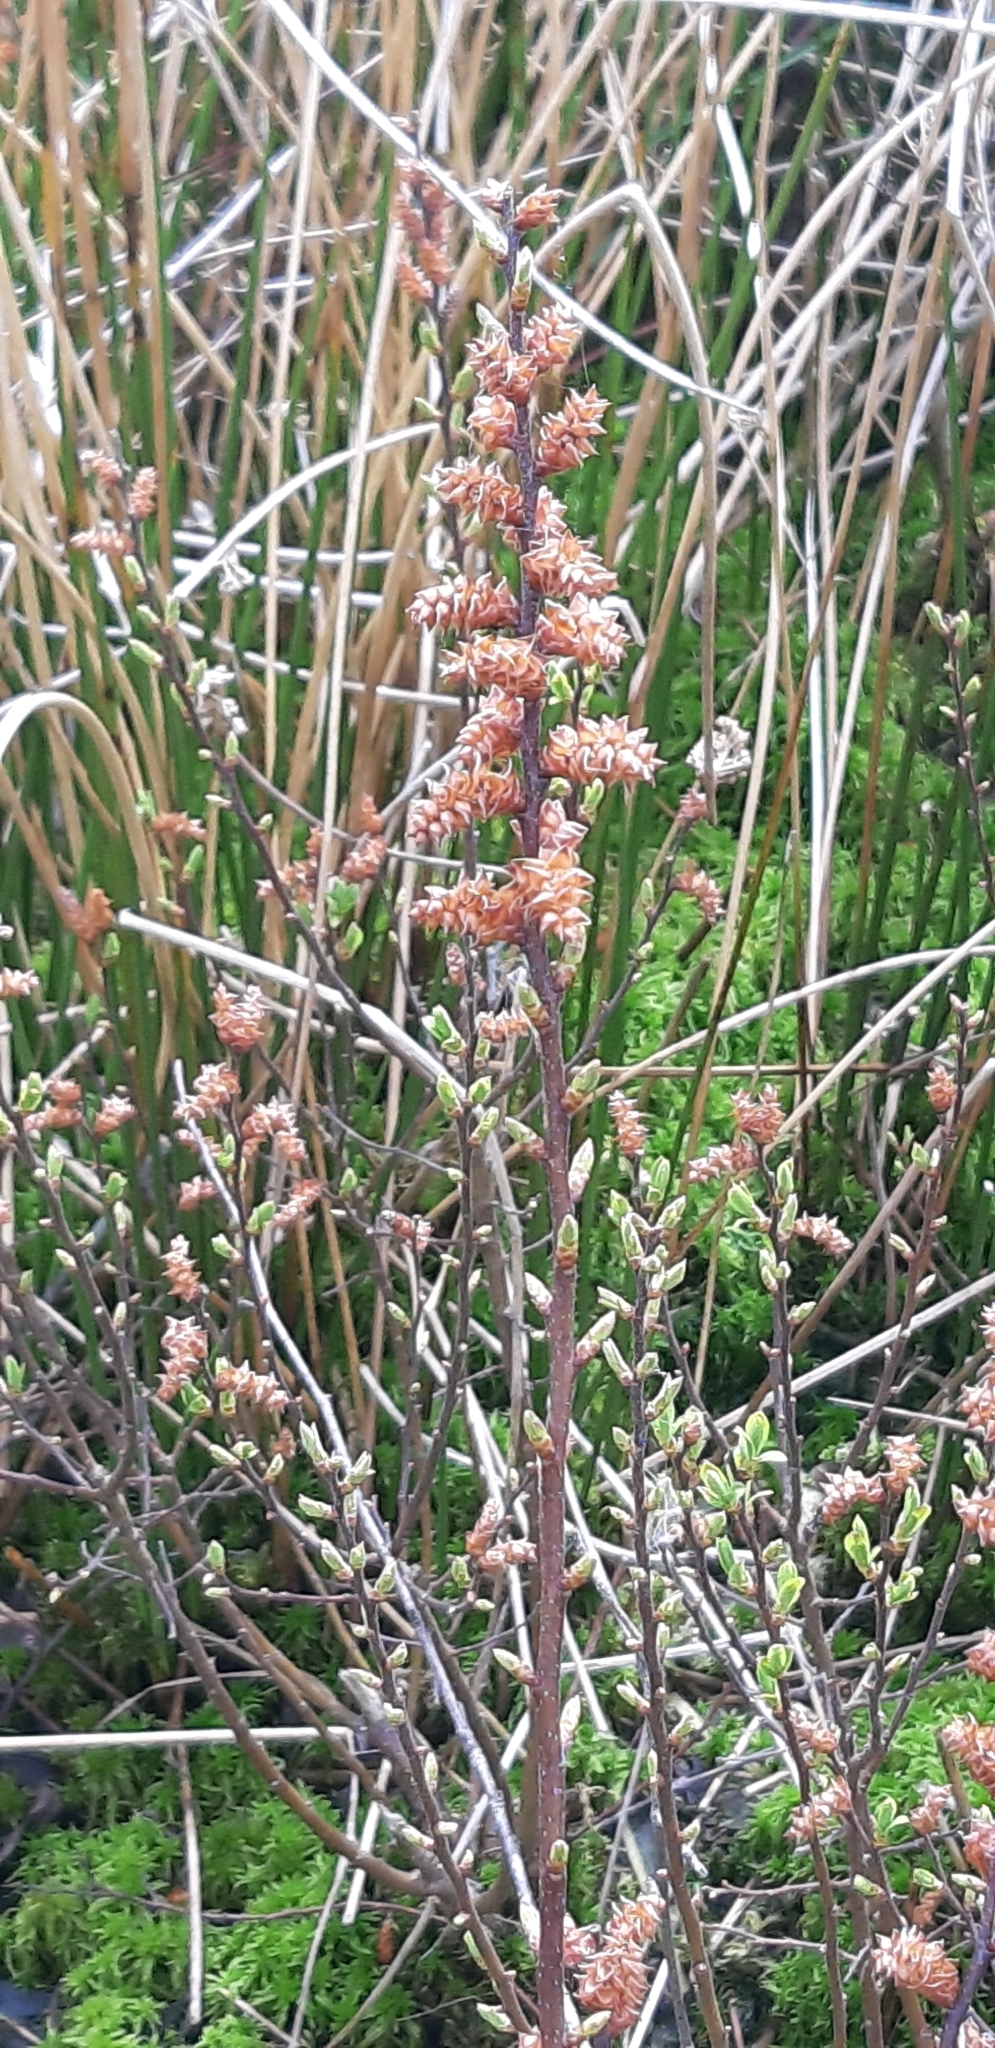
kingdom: Plantae
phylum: Tracheophyta
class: Magnoliopsida
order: Fagales
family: Myricaceae
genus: Myrica
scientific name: Myrica gale
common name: Sweet gale
